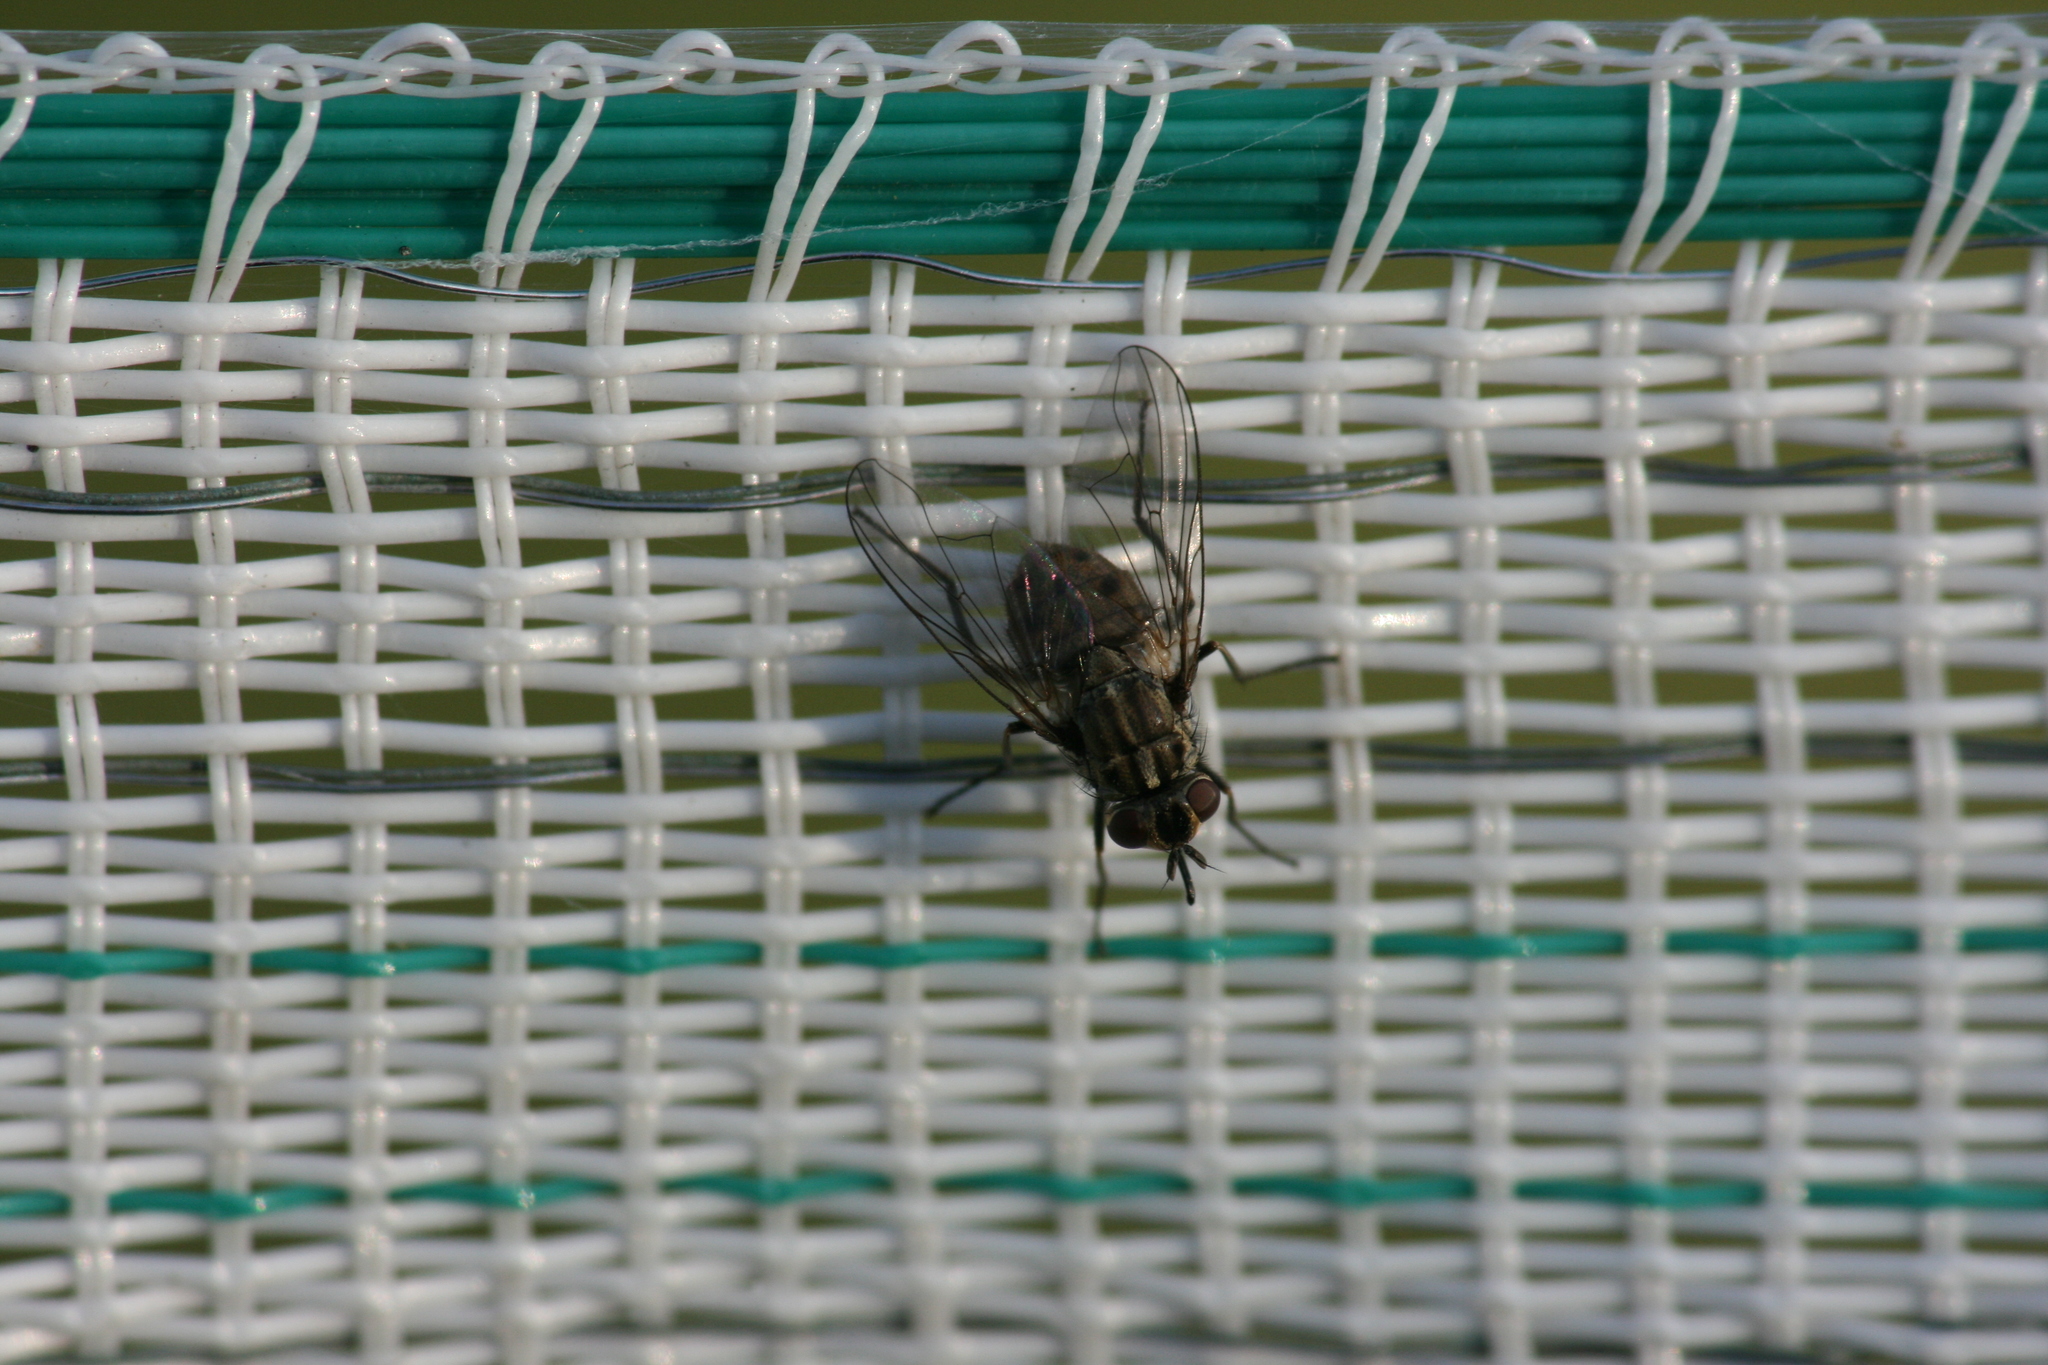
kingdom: Animalia
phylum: Arthropoda
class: Insecta
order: Diptera
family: Muscidae
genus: Stomoxys
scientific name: Stomoxys calcitrans
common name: Stable fly
